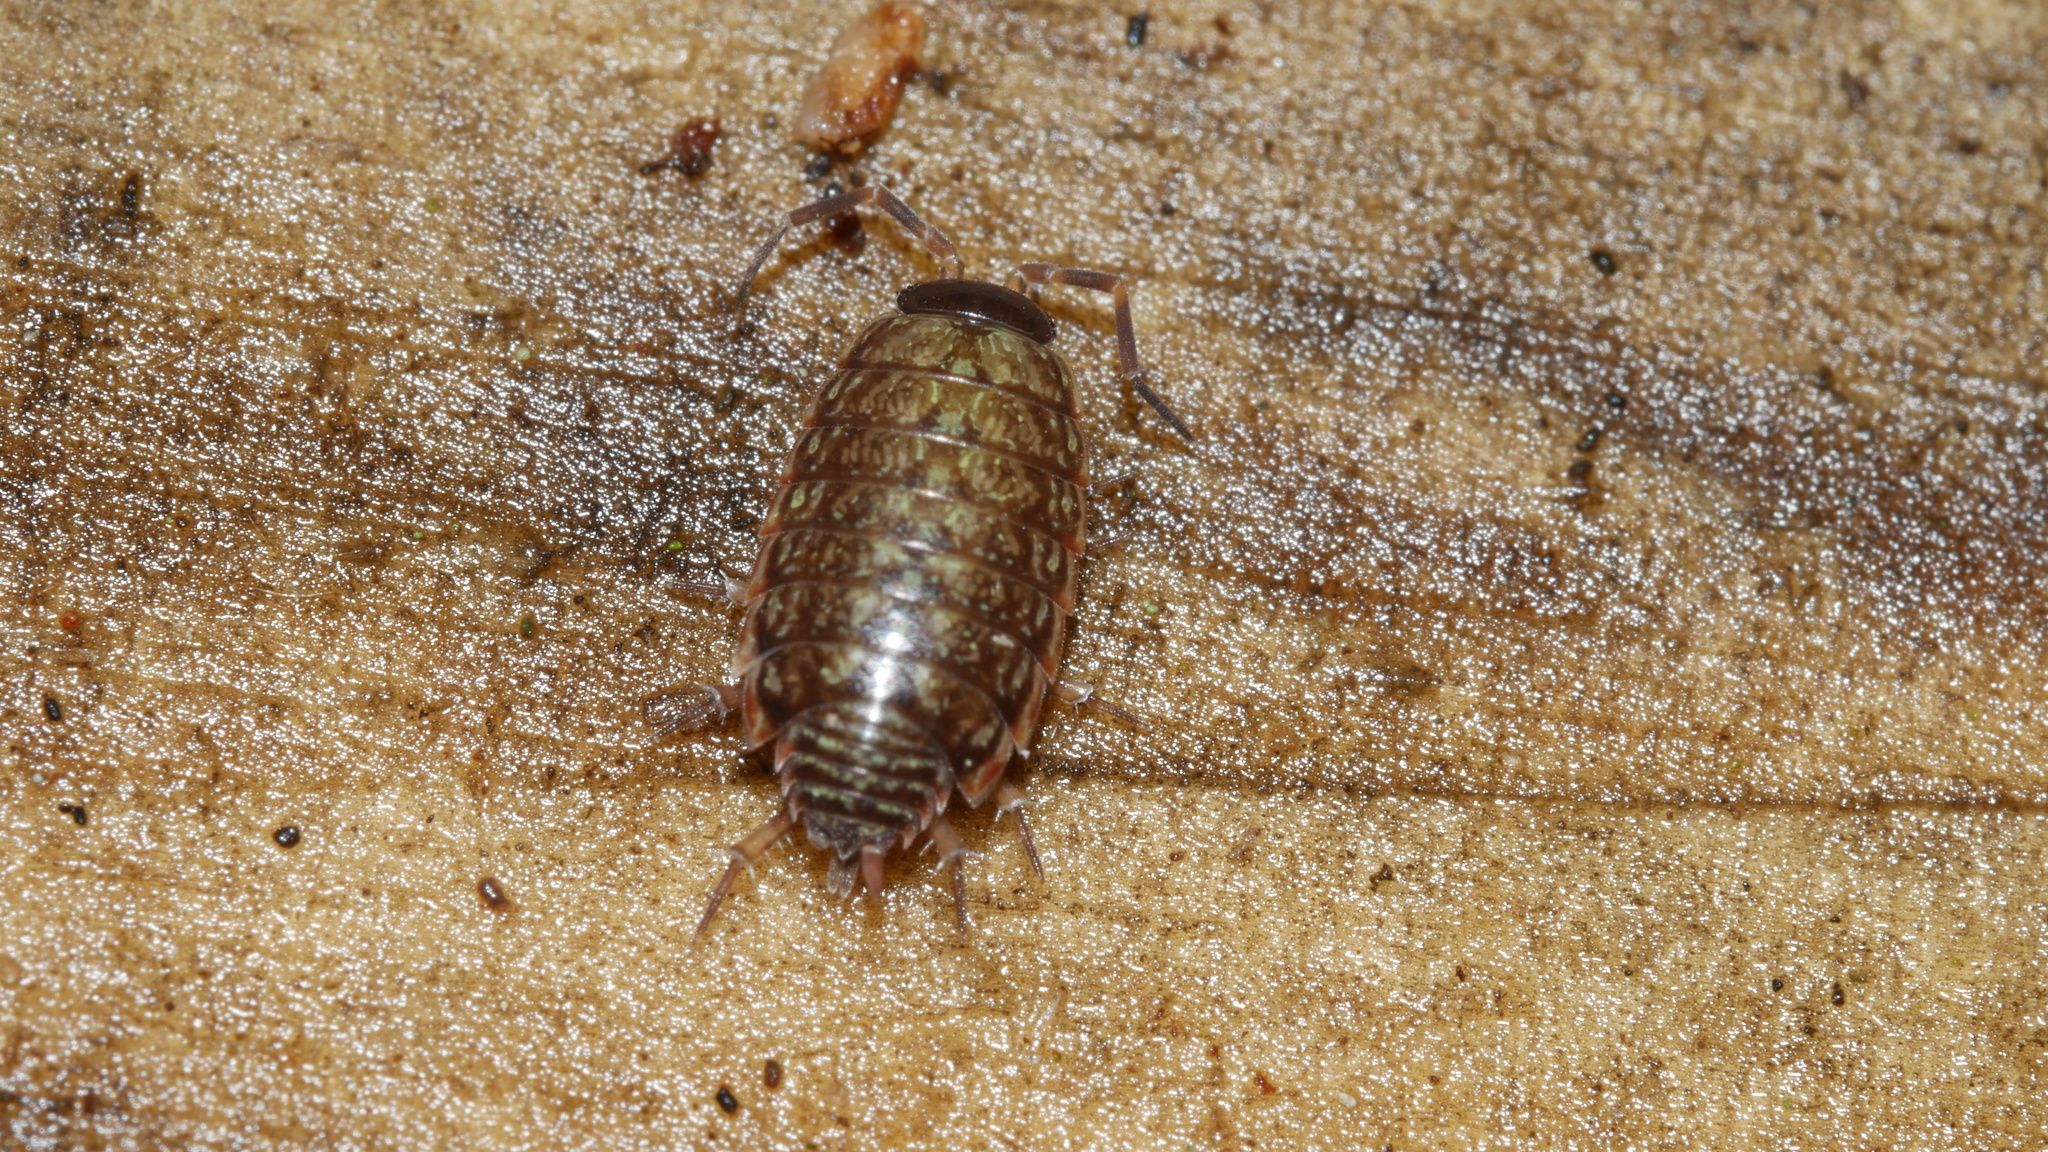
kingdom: Animalia
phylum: Arthropoda
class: Malacostraca
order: Isopoda
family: Philosciidae
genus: Philoscia
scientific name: Philoscia muscorum
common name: Common striped woodlouse
